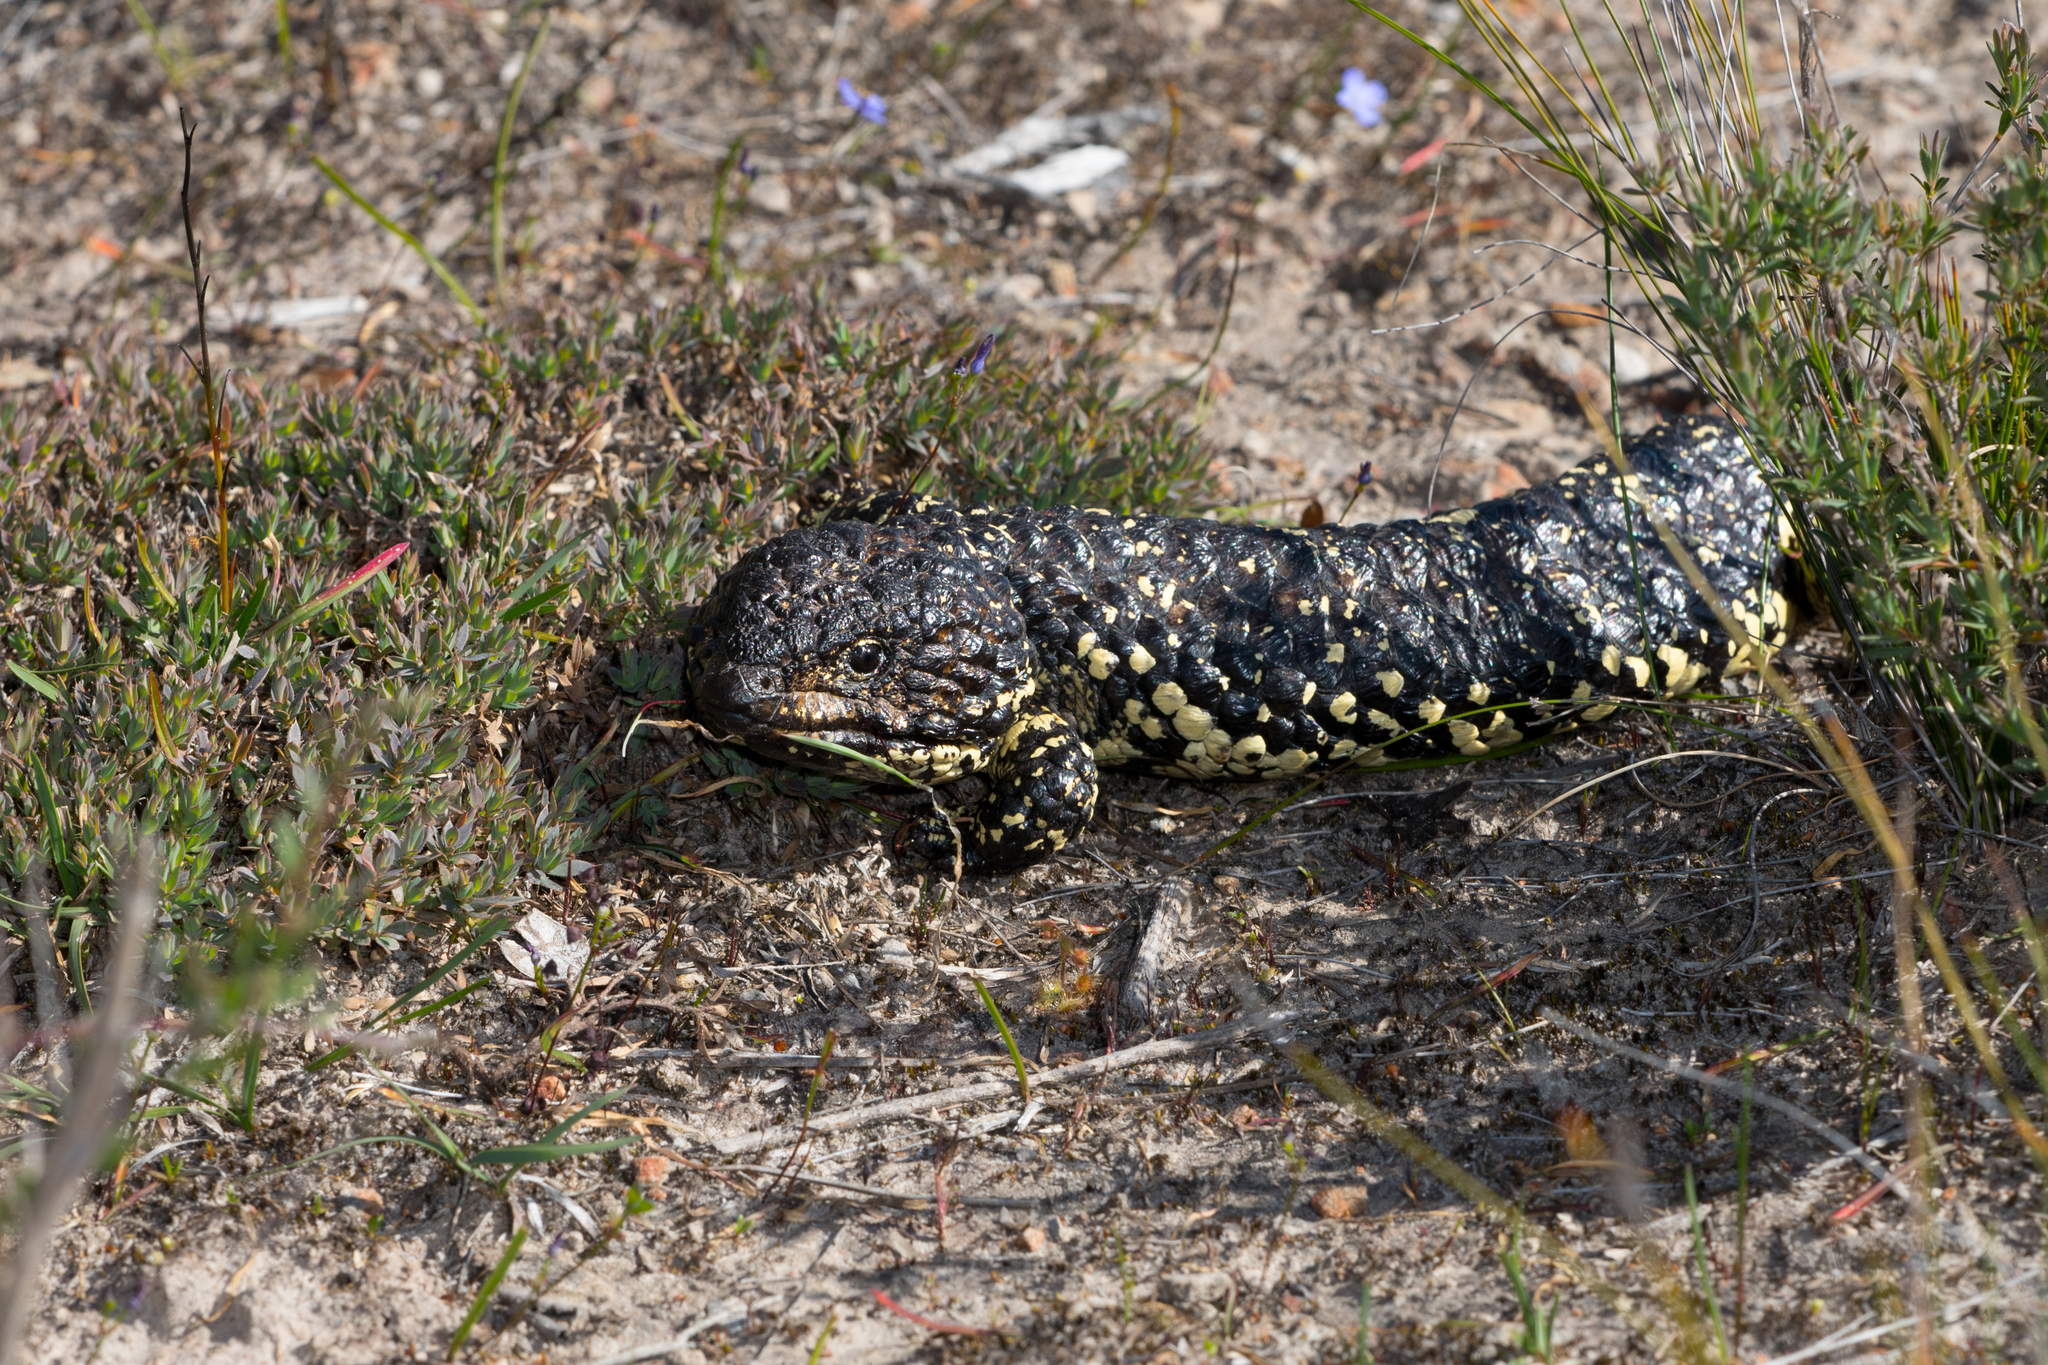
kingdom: Animalia
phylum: Chordata
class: Squamata
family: Scincidae
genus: Tiliqua
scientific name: Tiliqua rugosa
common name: Pinecone lizard
